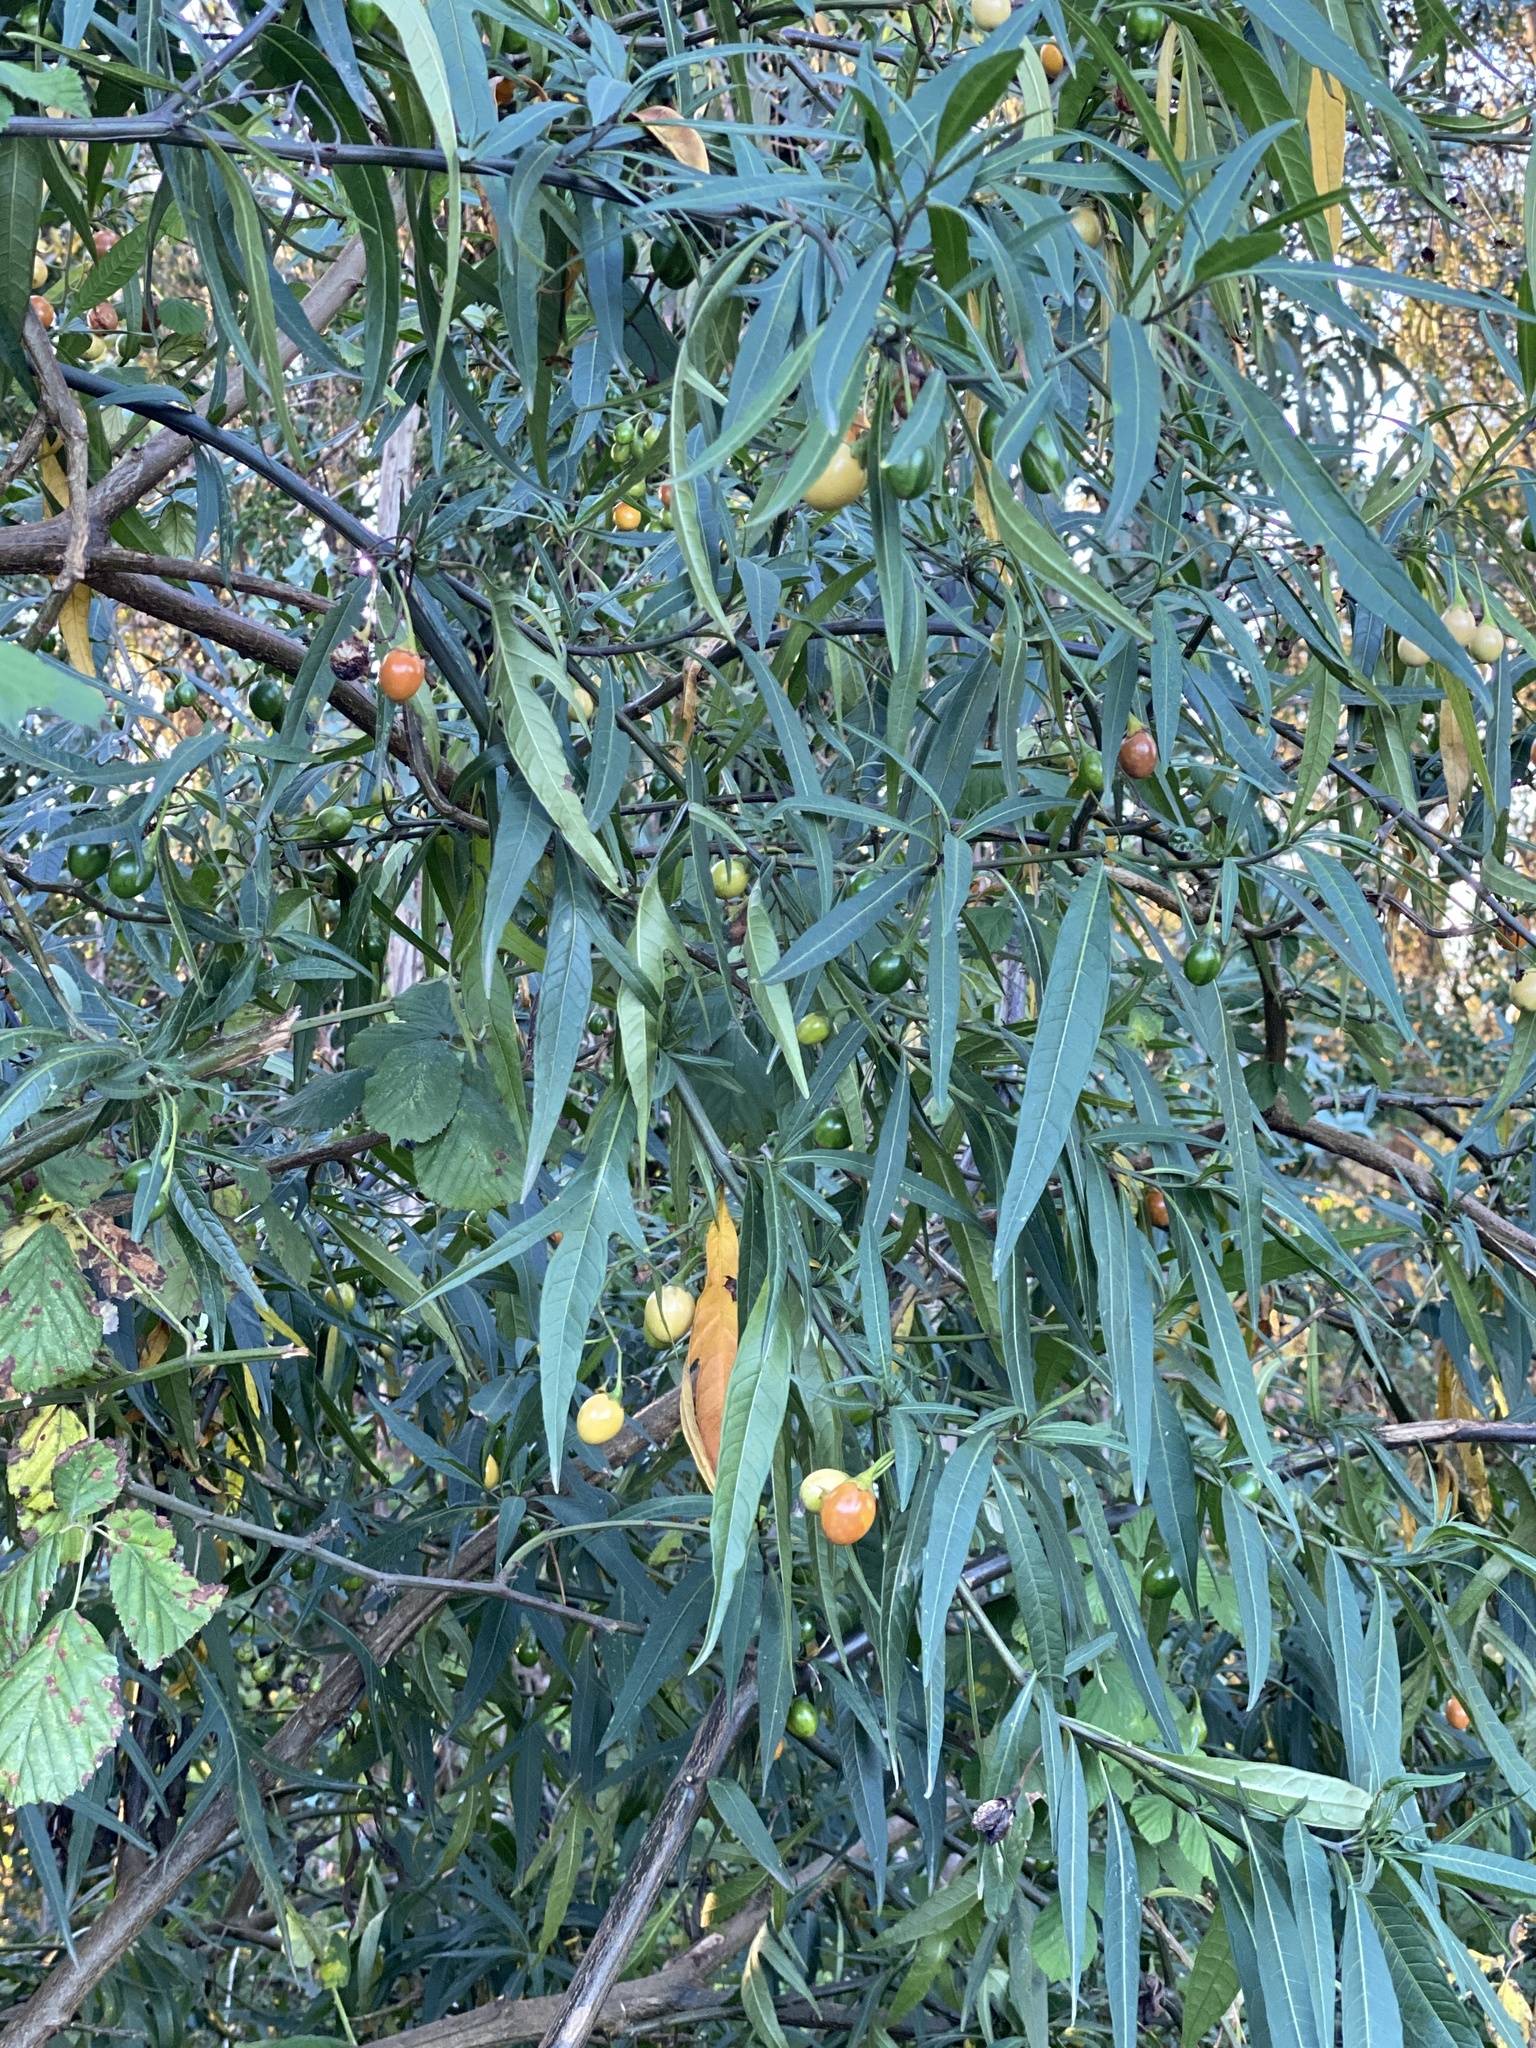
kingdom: Plantae
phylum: Tracheophyta
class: Magnoliopsida
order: Solanales
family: Solanaceae
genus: Solanum
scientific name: Solanum laciniatum
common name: Kangaroo-apple
